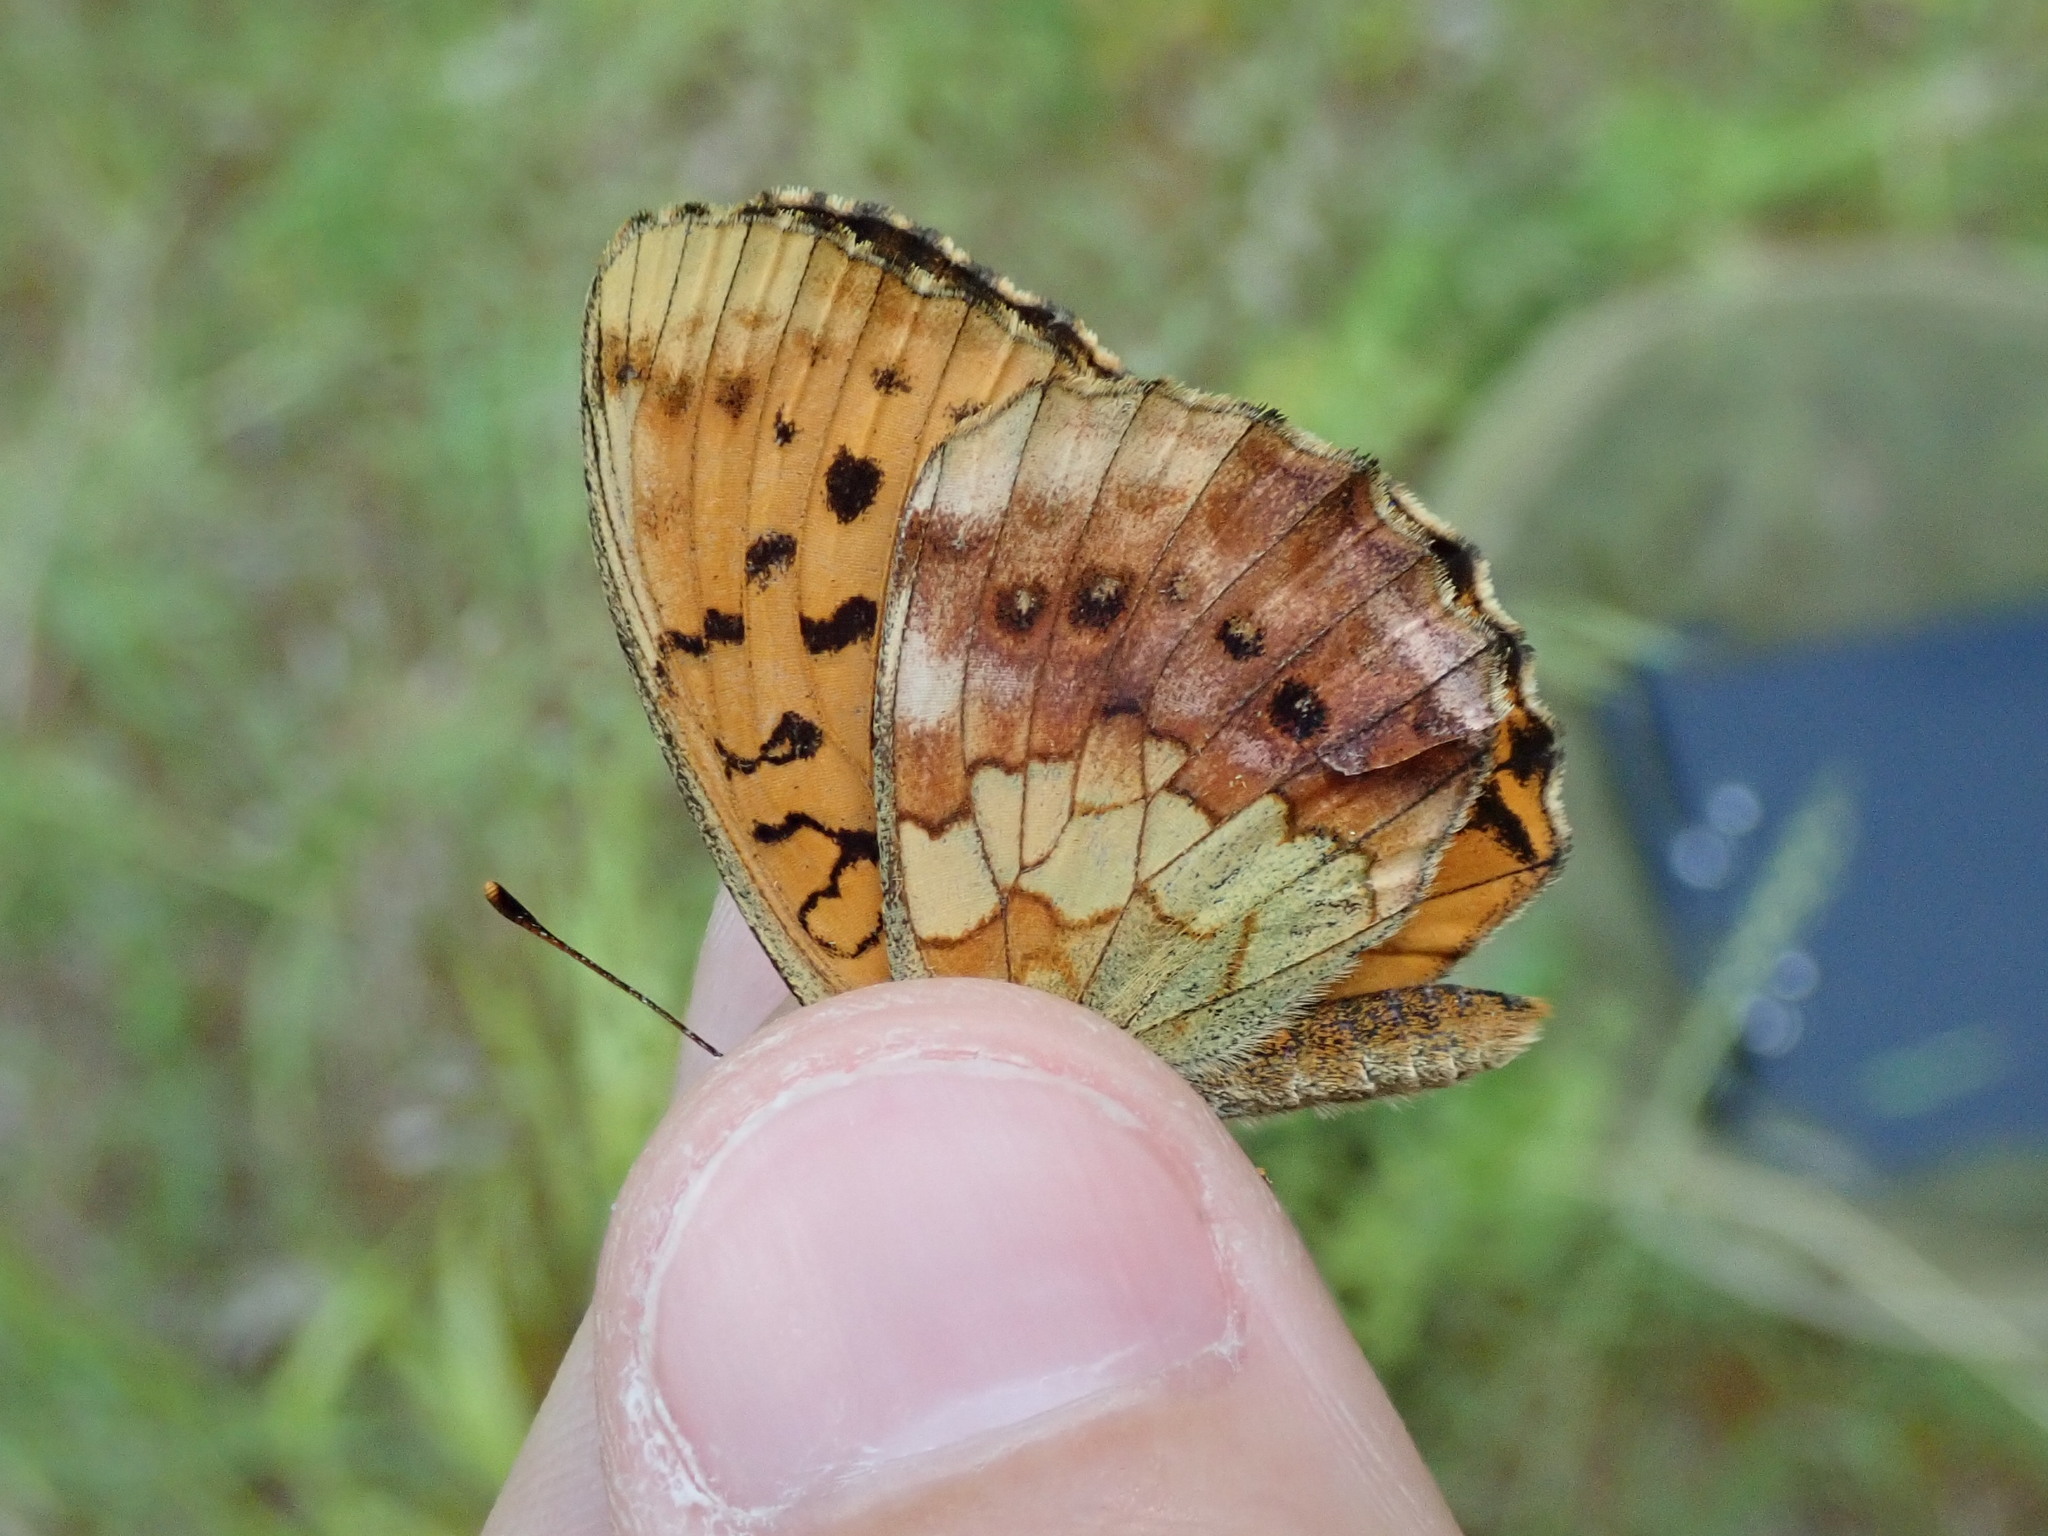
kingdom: Animalia
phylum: Arthropoda
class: Insecta
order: Lepidoptera
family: Nymphalidae
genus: Brenthis
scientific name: Brenthis daphne
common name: Marbled fritillary
